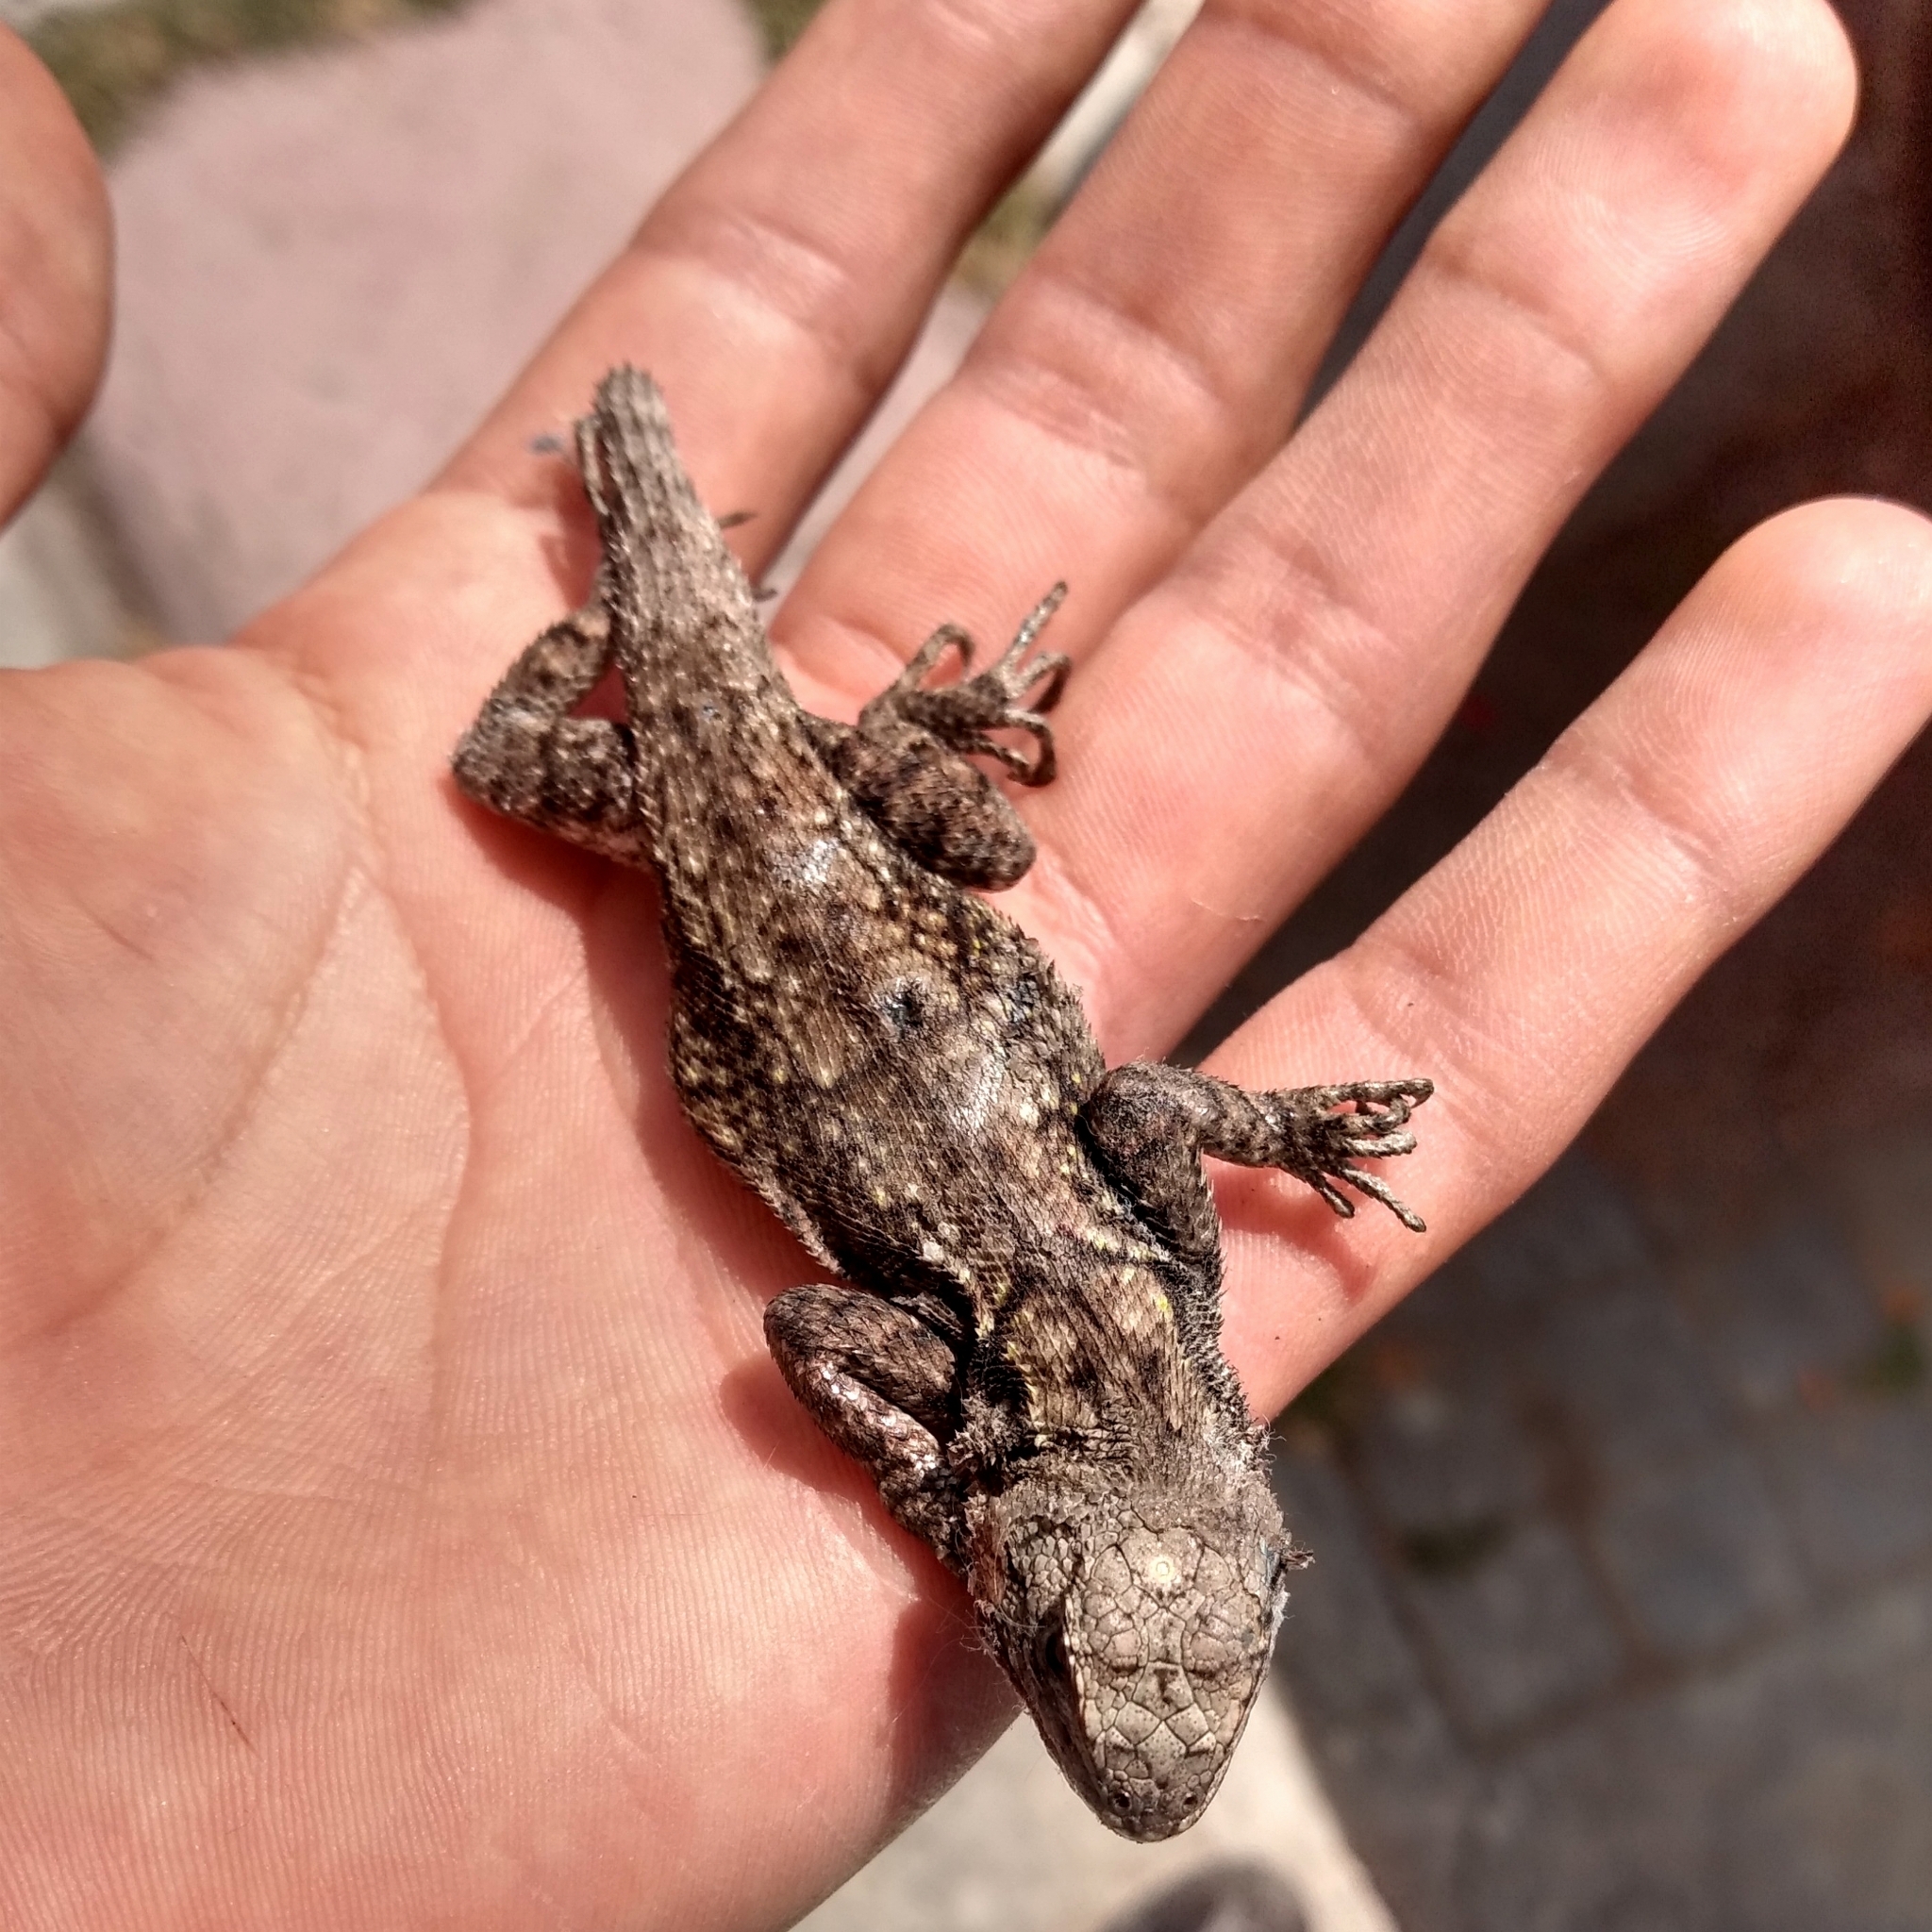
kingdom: Animalia
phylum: Chordata
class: Squamata
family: Phrynosomatidae
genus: Sceloporus
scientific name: Sceloporus grammicus
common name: Mesquite lizard
